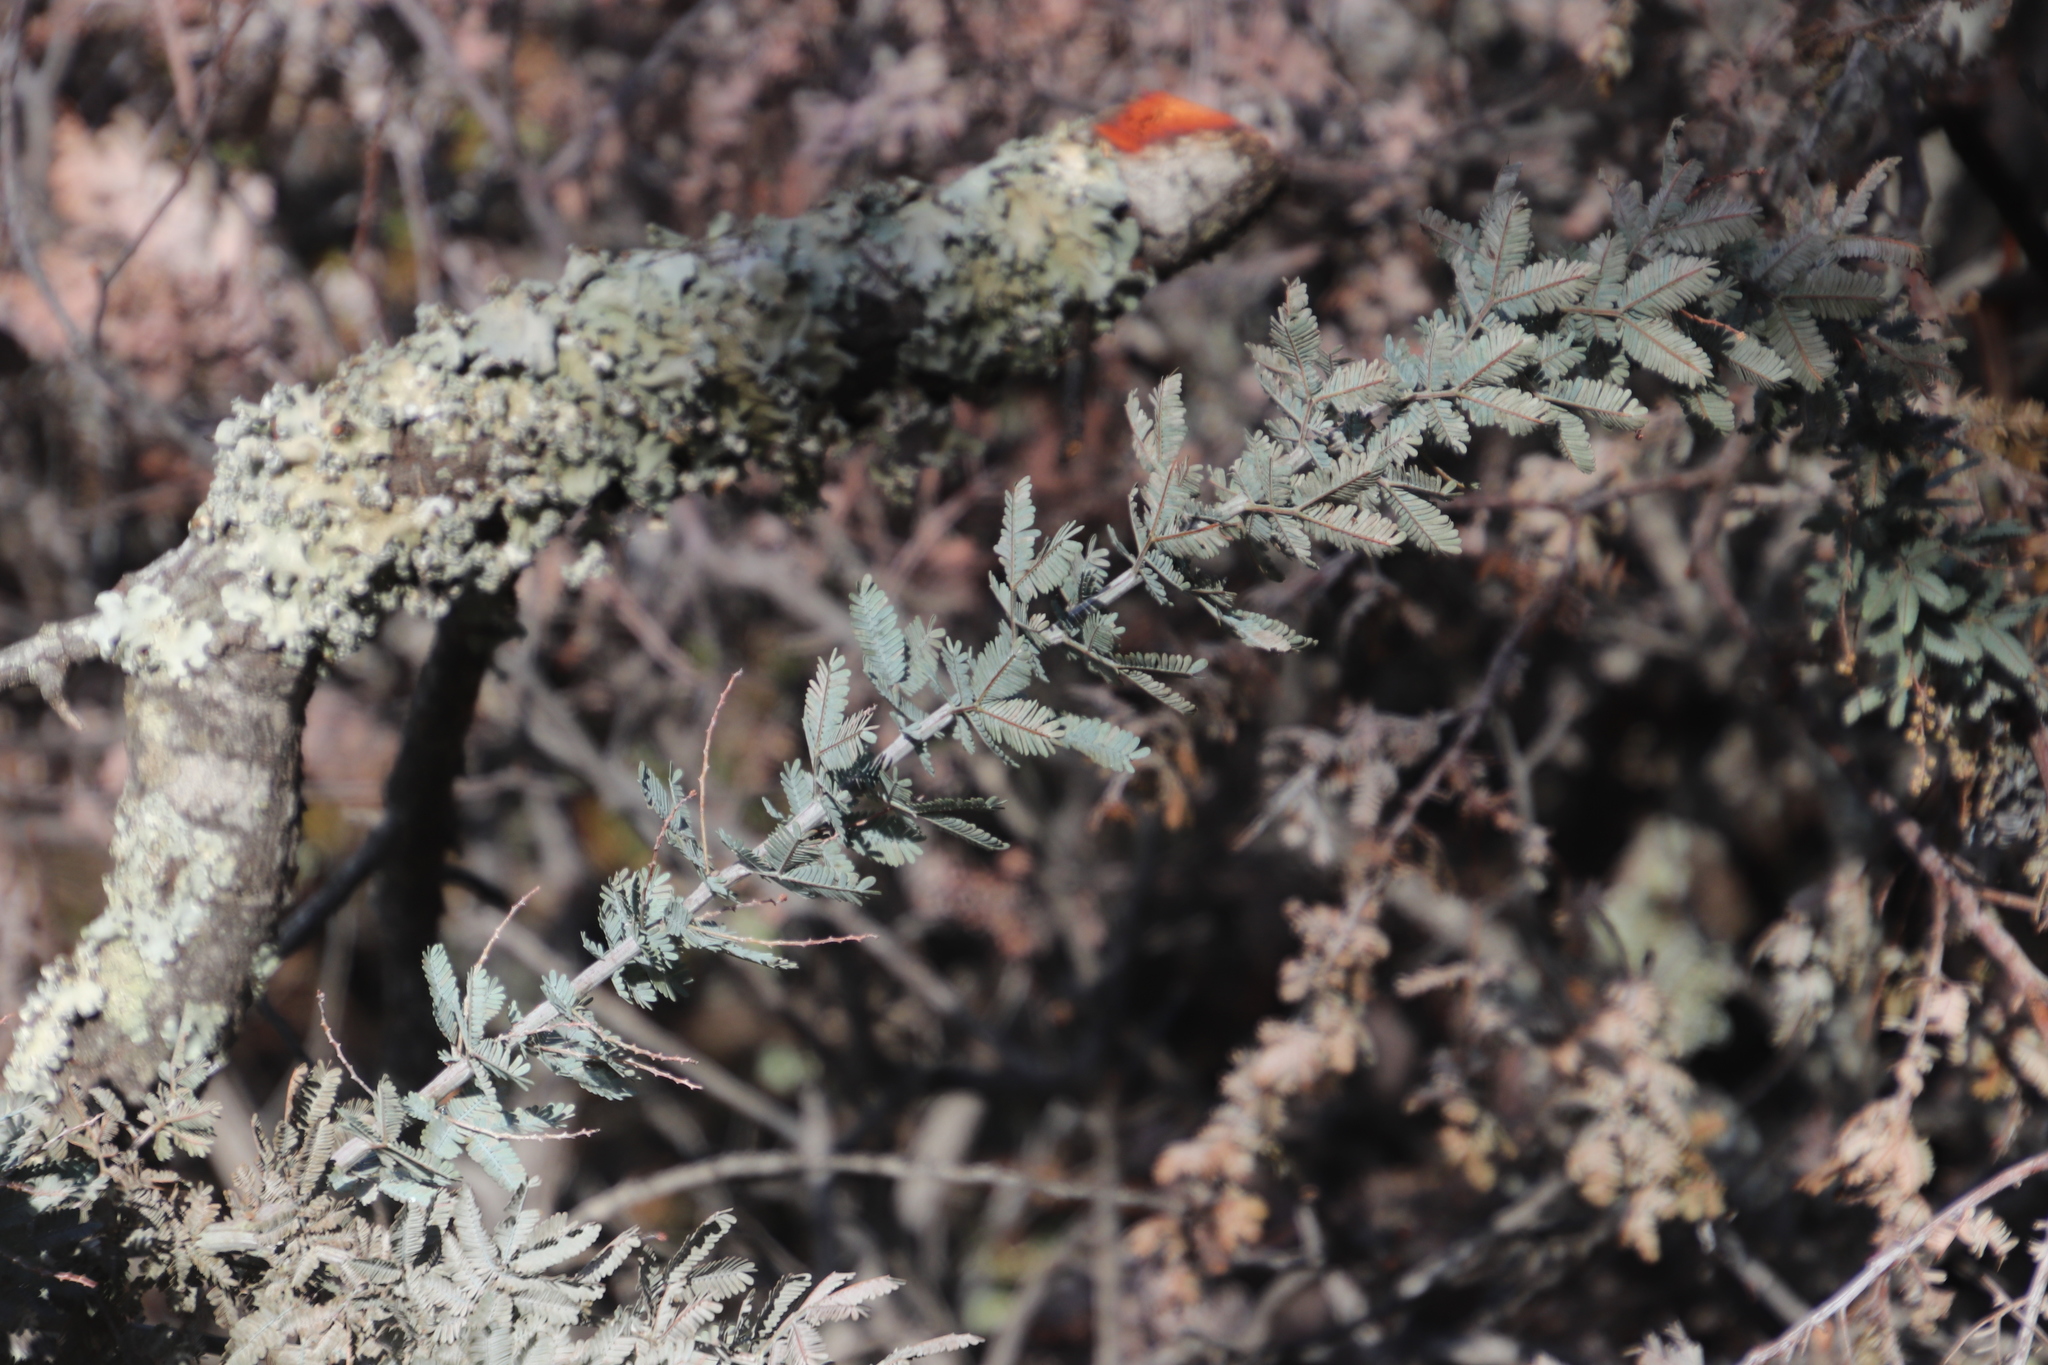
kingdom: Plantae
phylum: Tracheophyta
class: Magnoliopsida
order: Fabales
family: Fabaceae
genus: Acacia
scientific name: Acacia baileyana
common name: Cootamundra wattle
